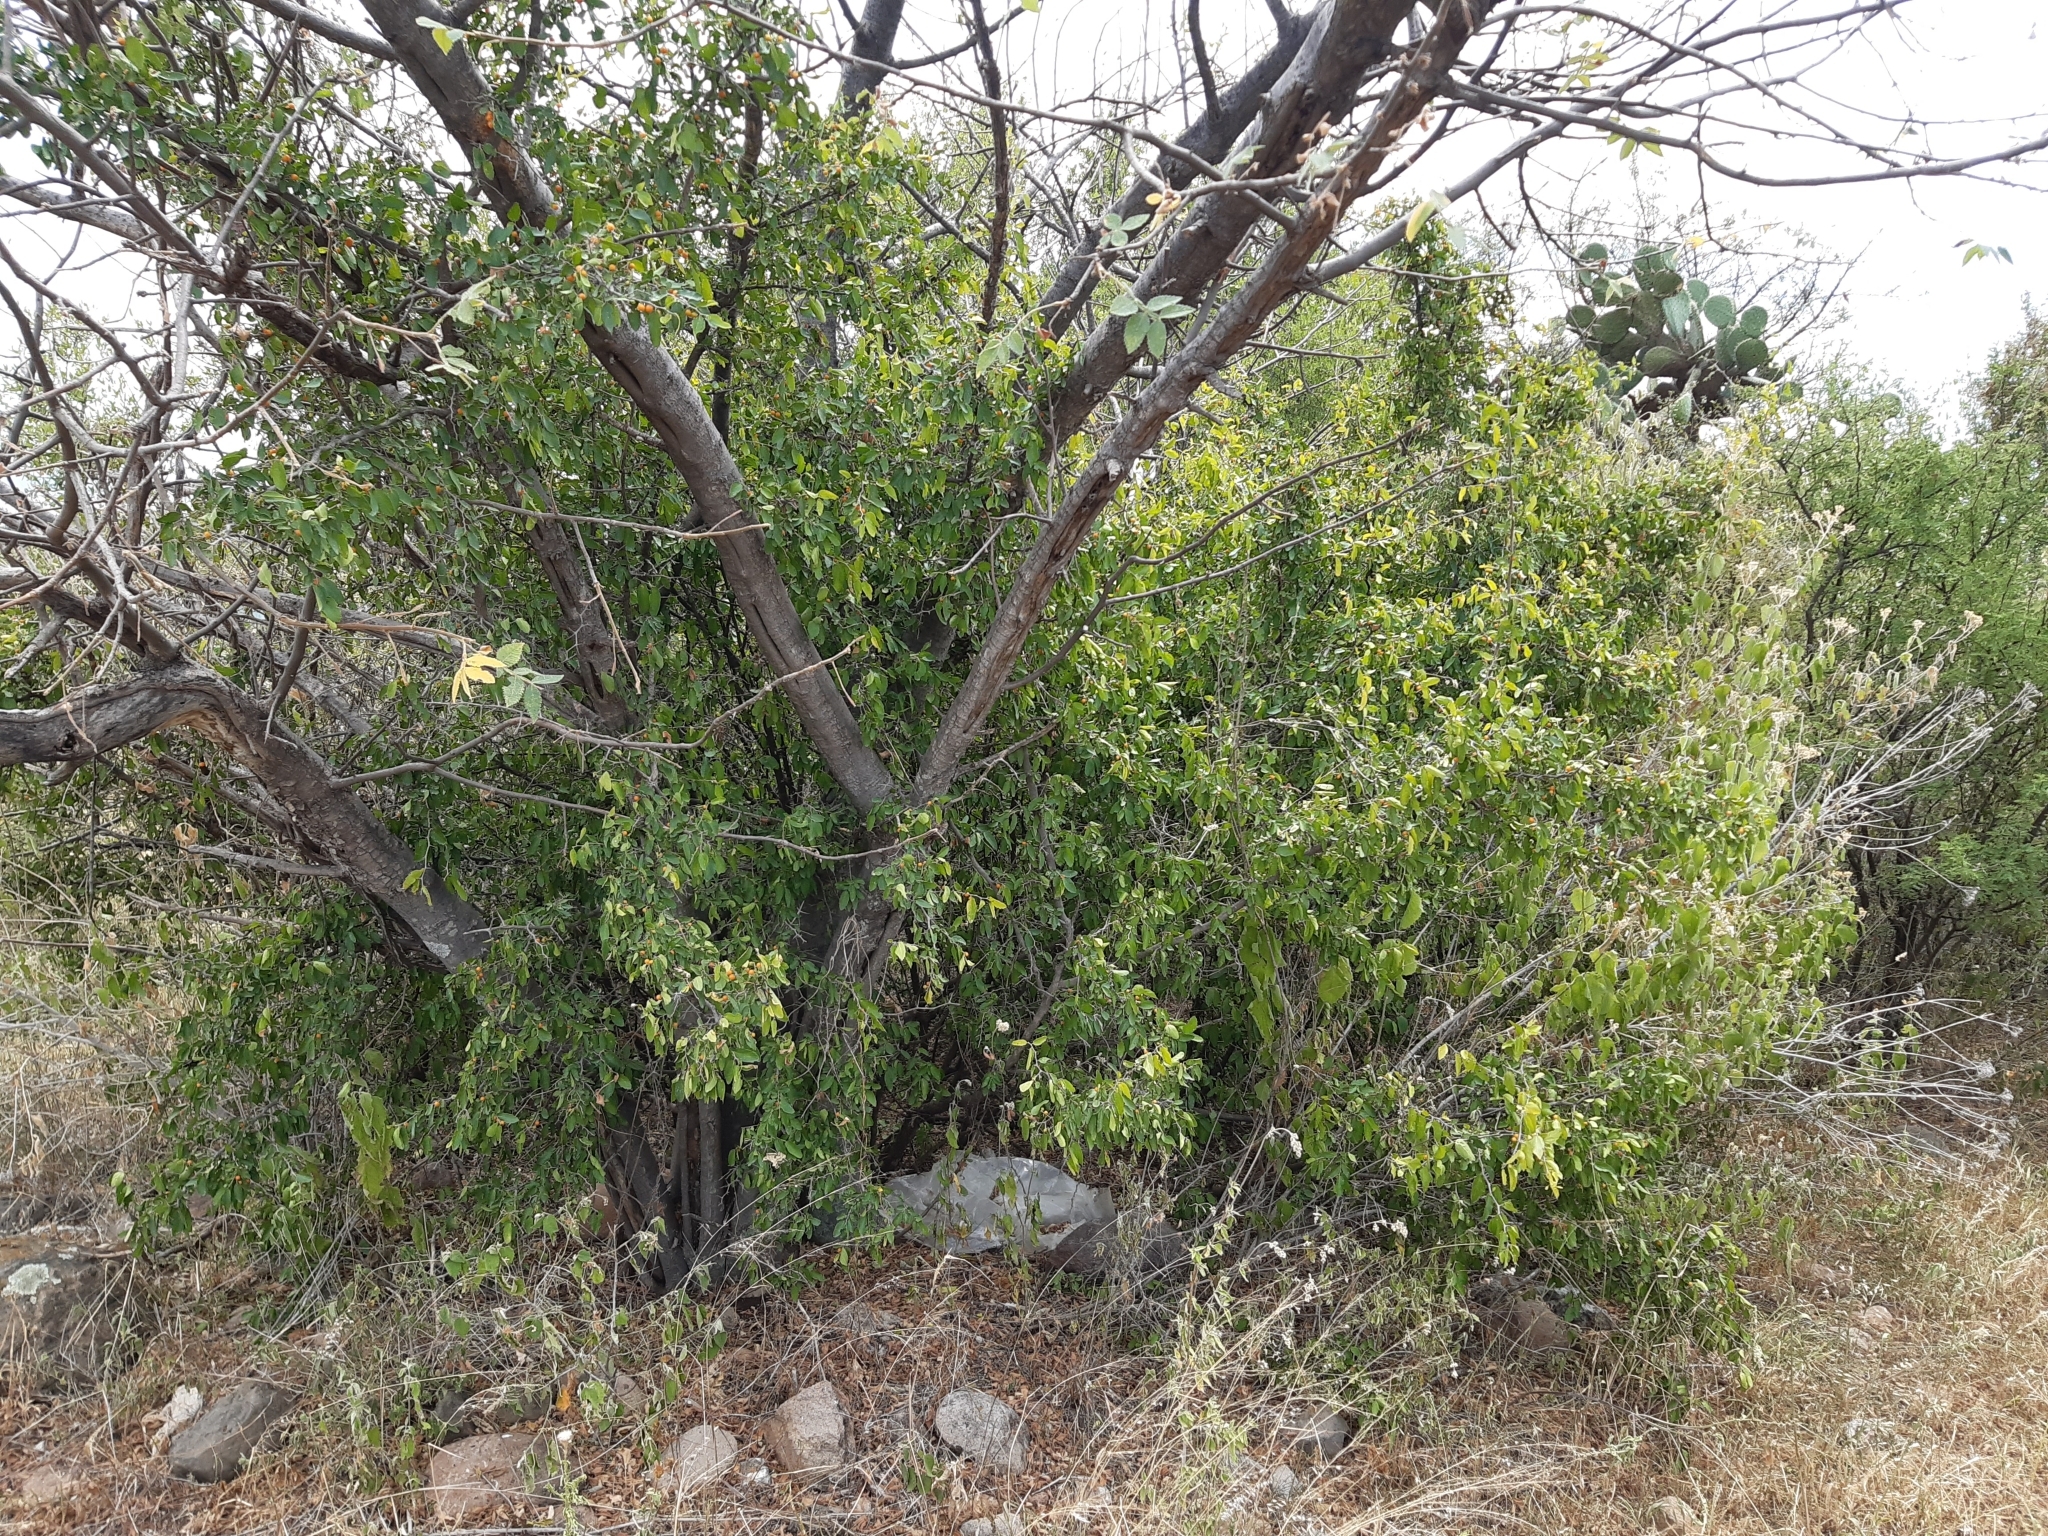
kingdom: Plantae
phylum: Tracheophyta
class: Magnoliopsida
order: Rosales
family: Cannabaceae
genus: Celtis
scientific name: Celtis pallida
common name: Desert hackberry
